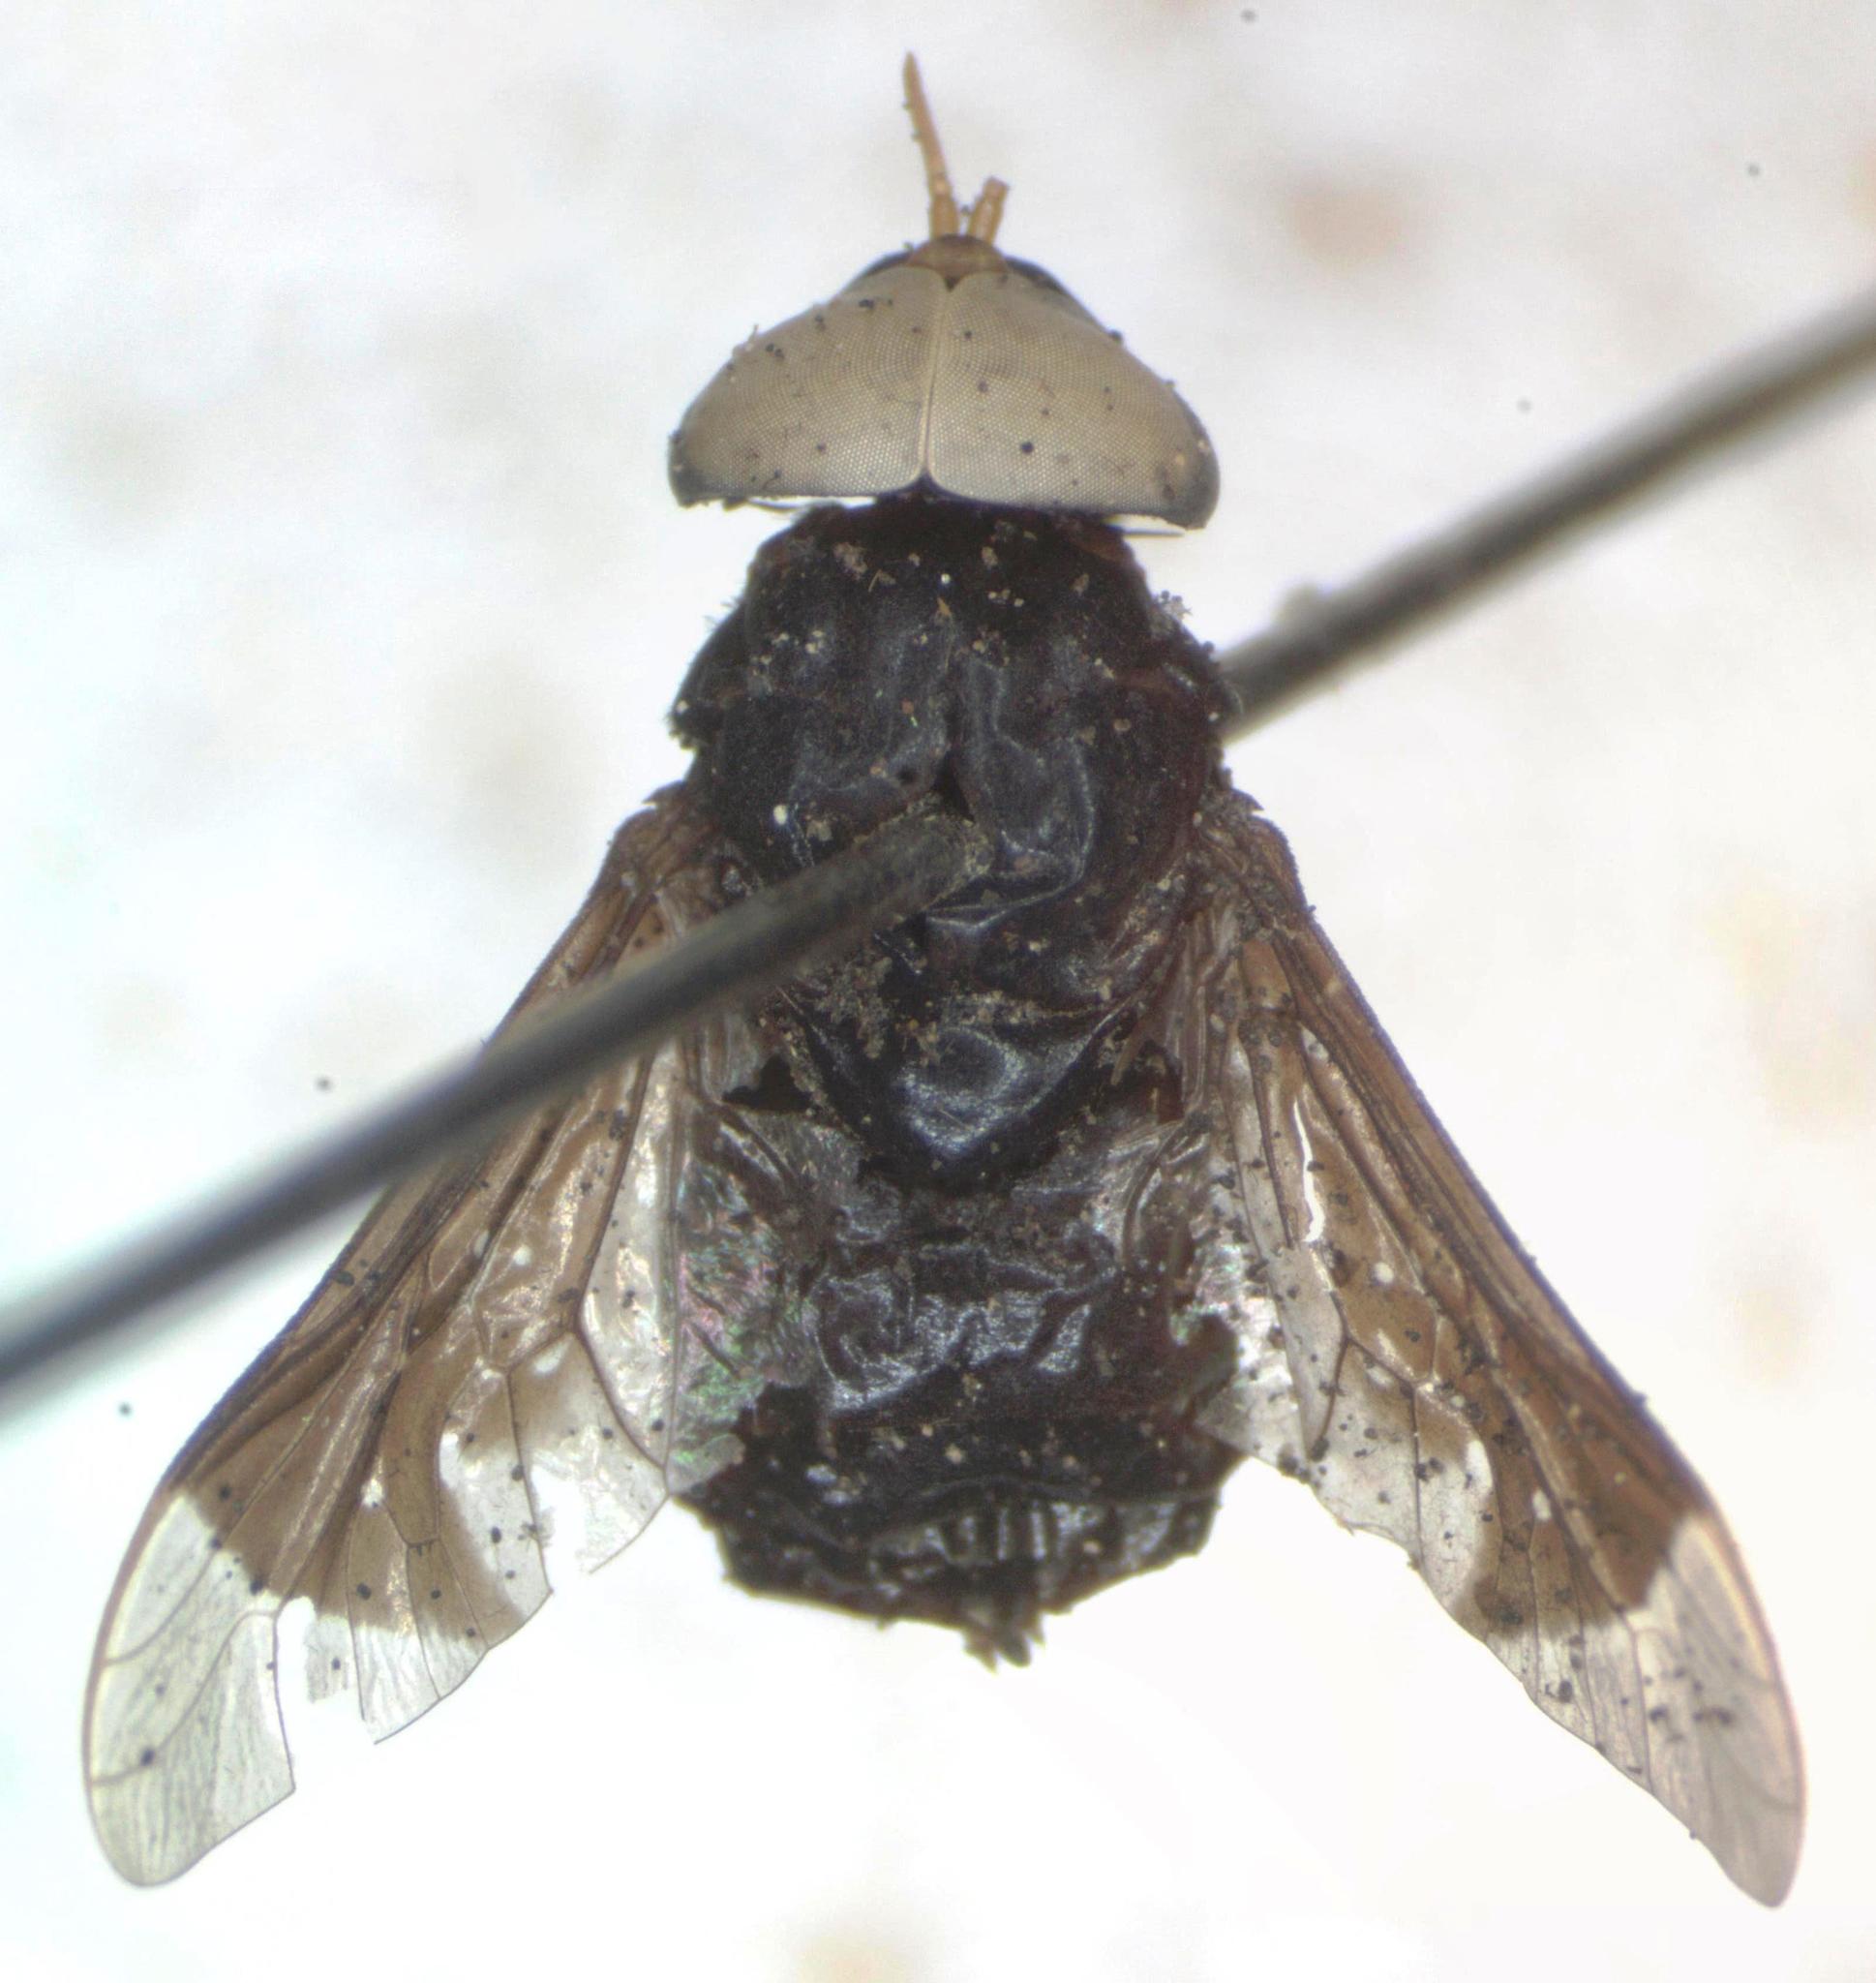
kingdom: Animalia
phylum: Arthropoda
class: Insecta
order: Diptera
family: Tabanidae
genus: Lepiselaga
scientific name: Lepiselaga crassipes
